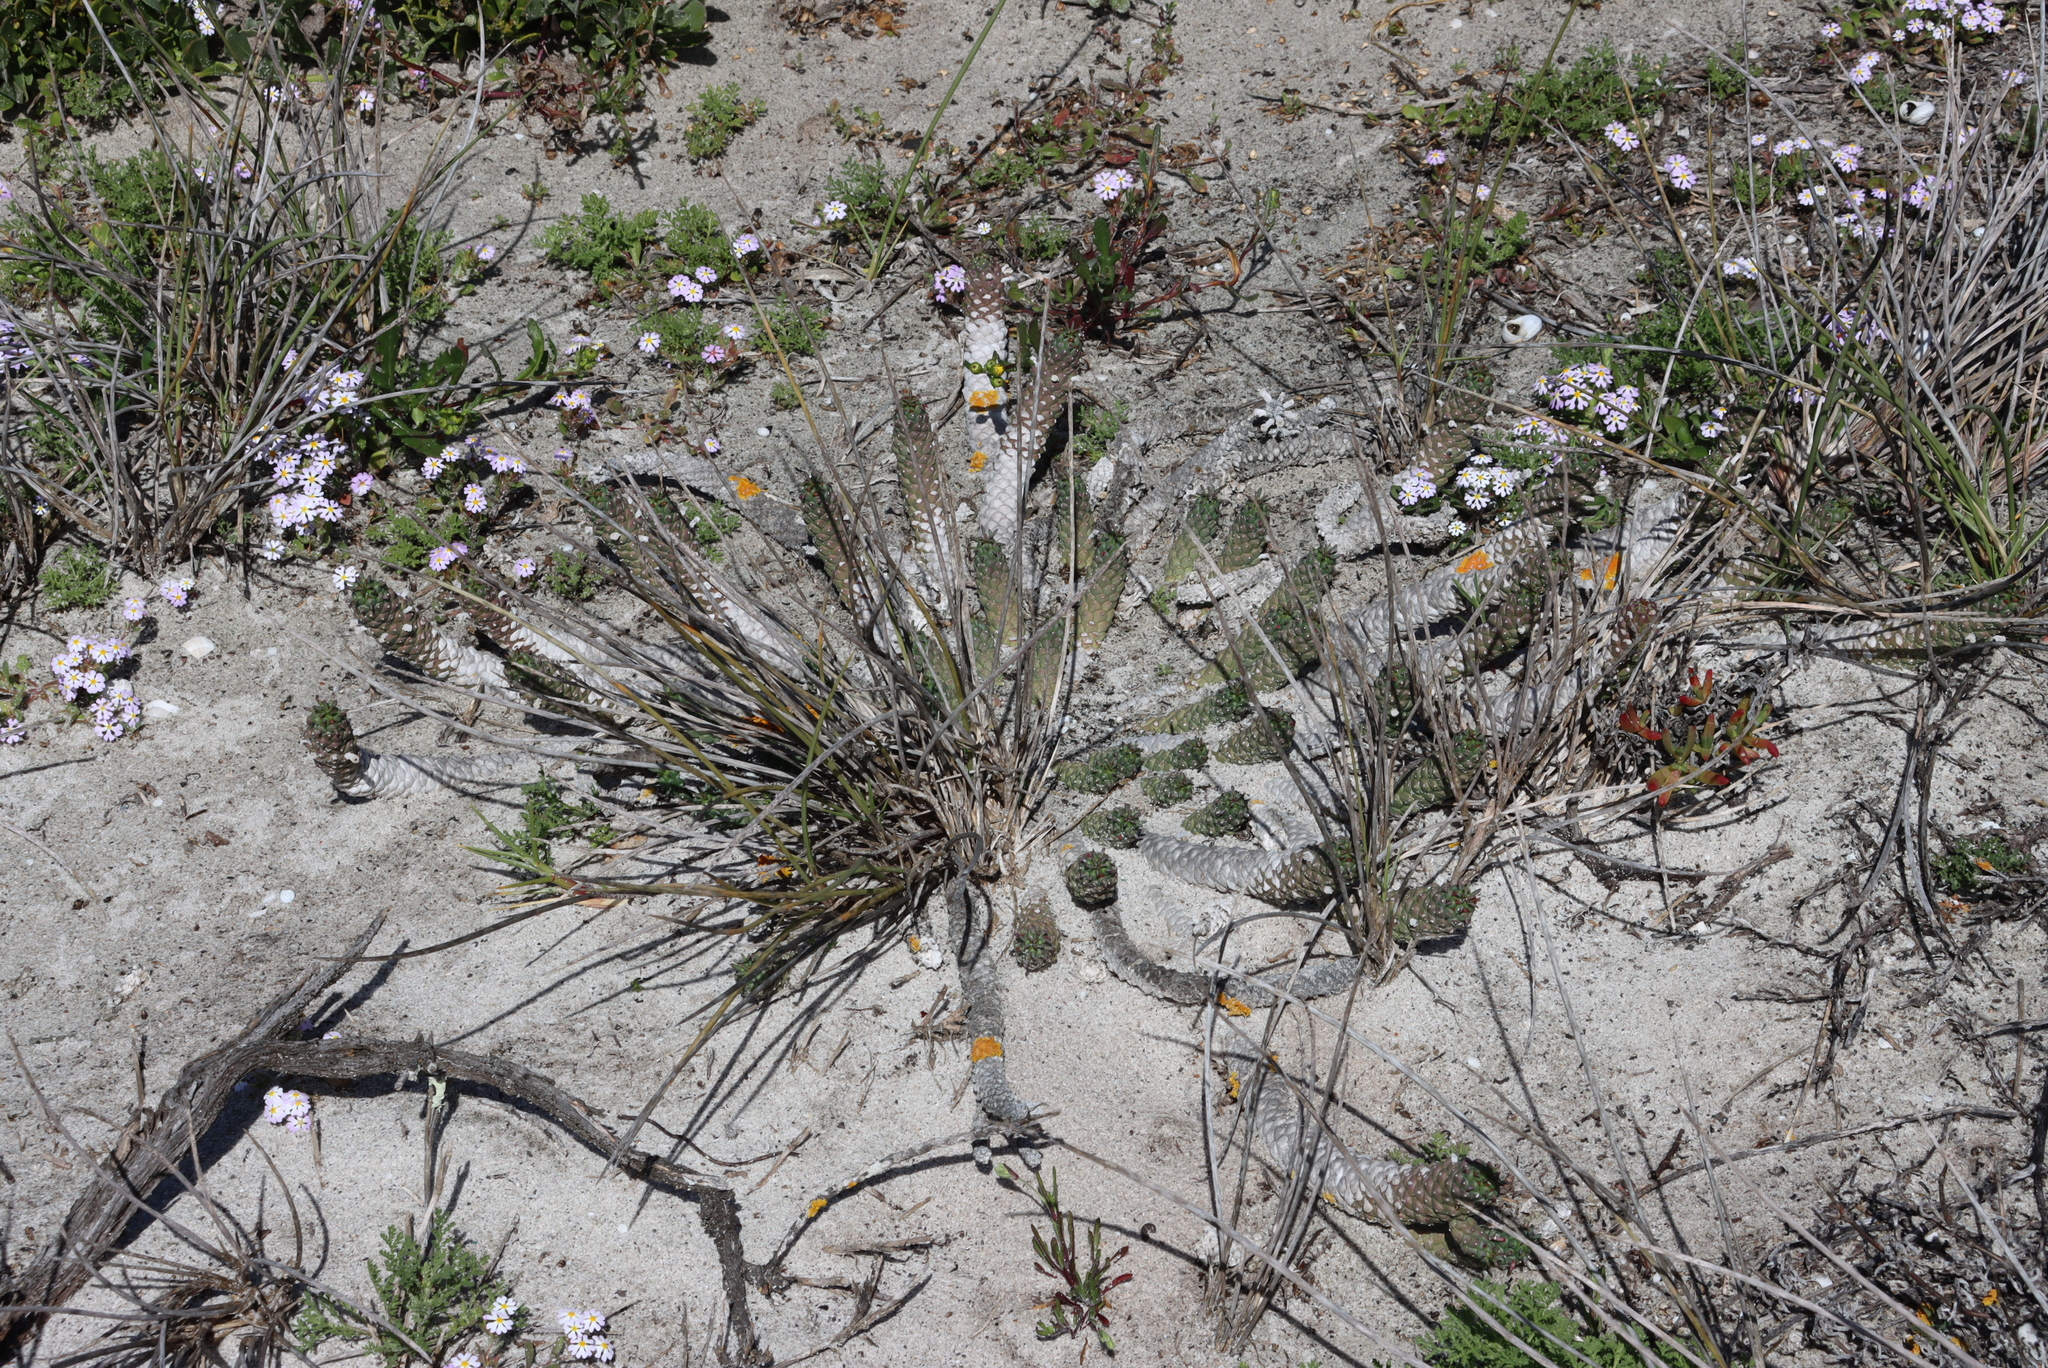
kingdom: Plantae
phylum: Tracheophyta
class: Magnoliopsida
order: Malpighiales
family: Euphorbiaceae
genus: Euphorbia
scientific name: Euphorbia caput-medusae
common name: Medusa's-head
